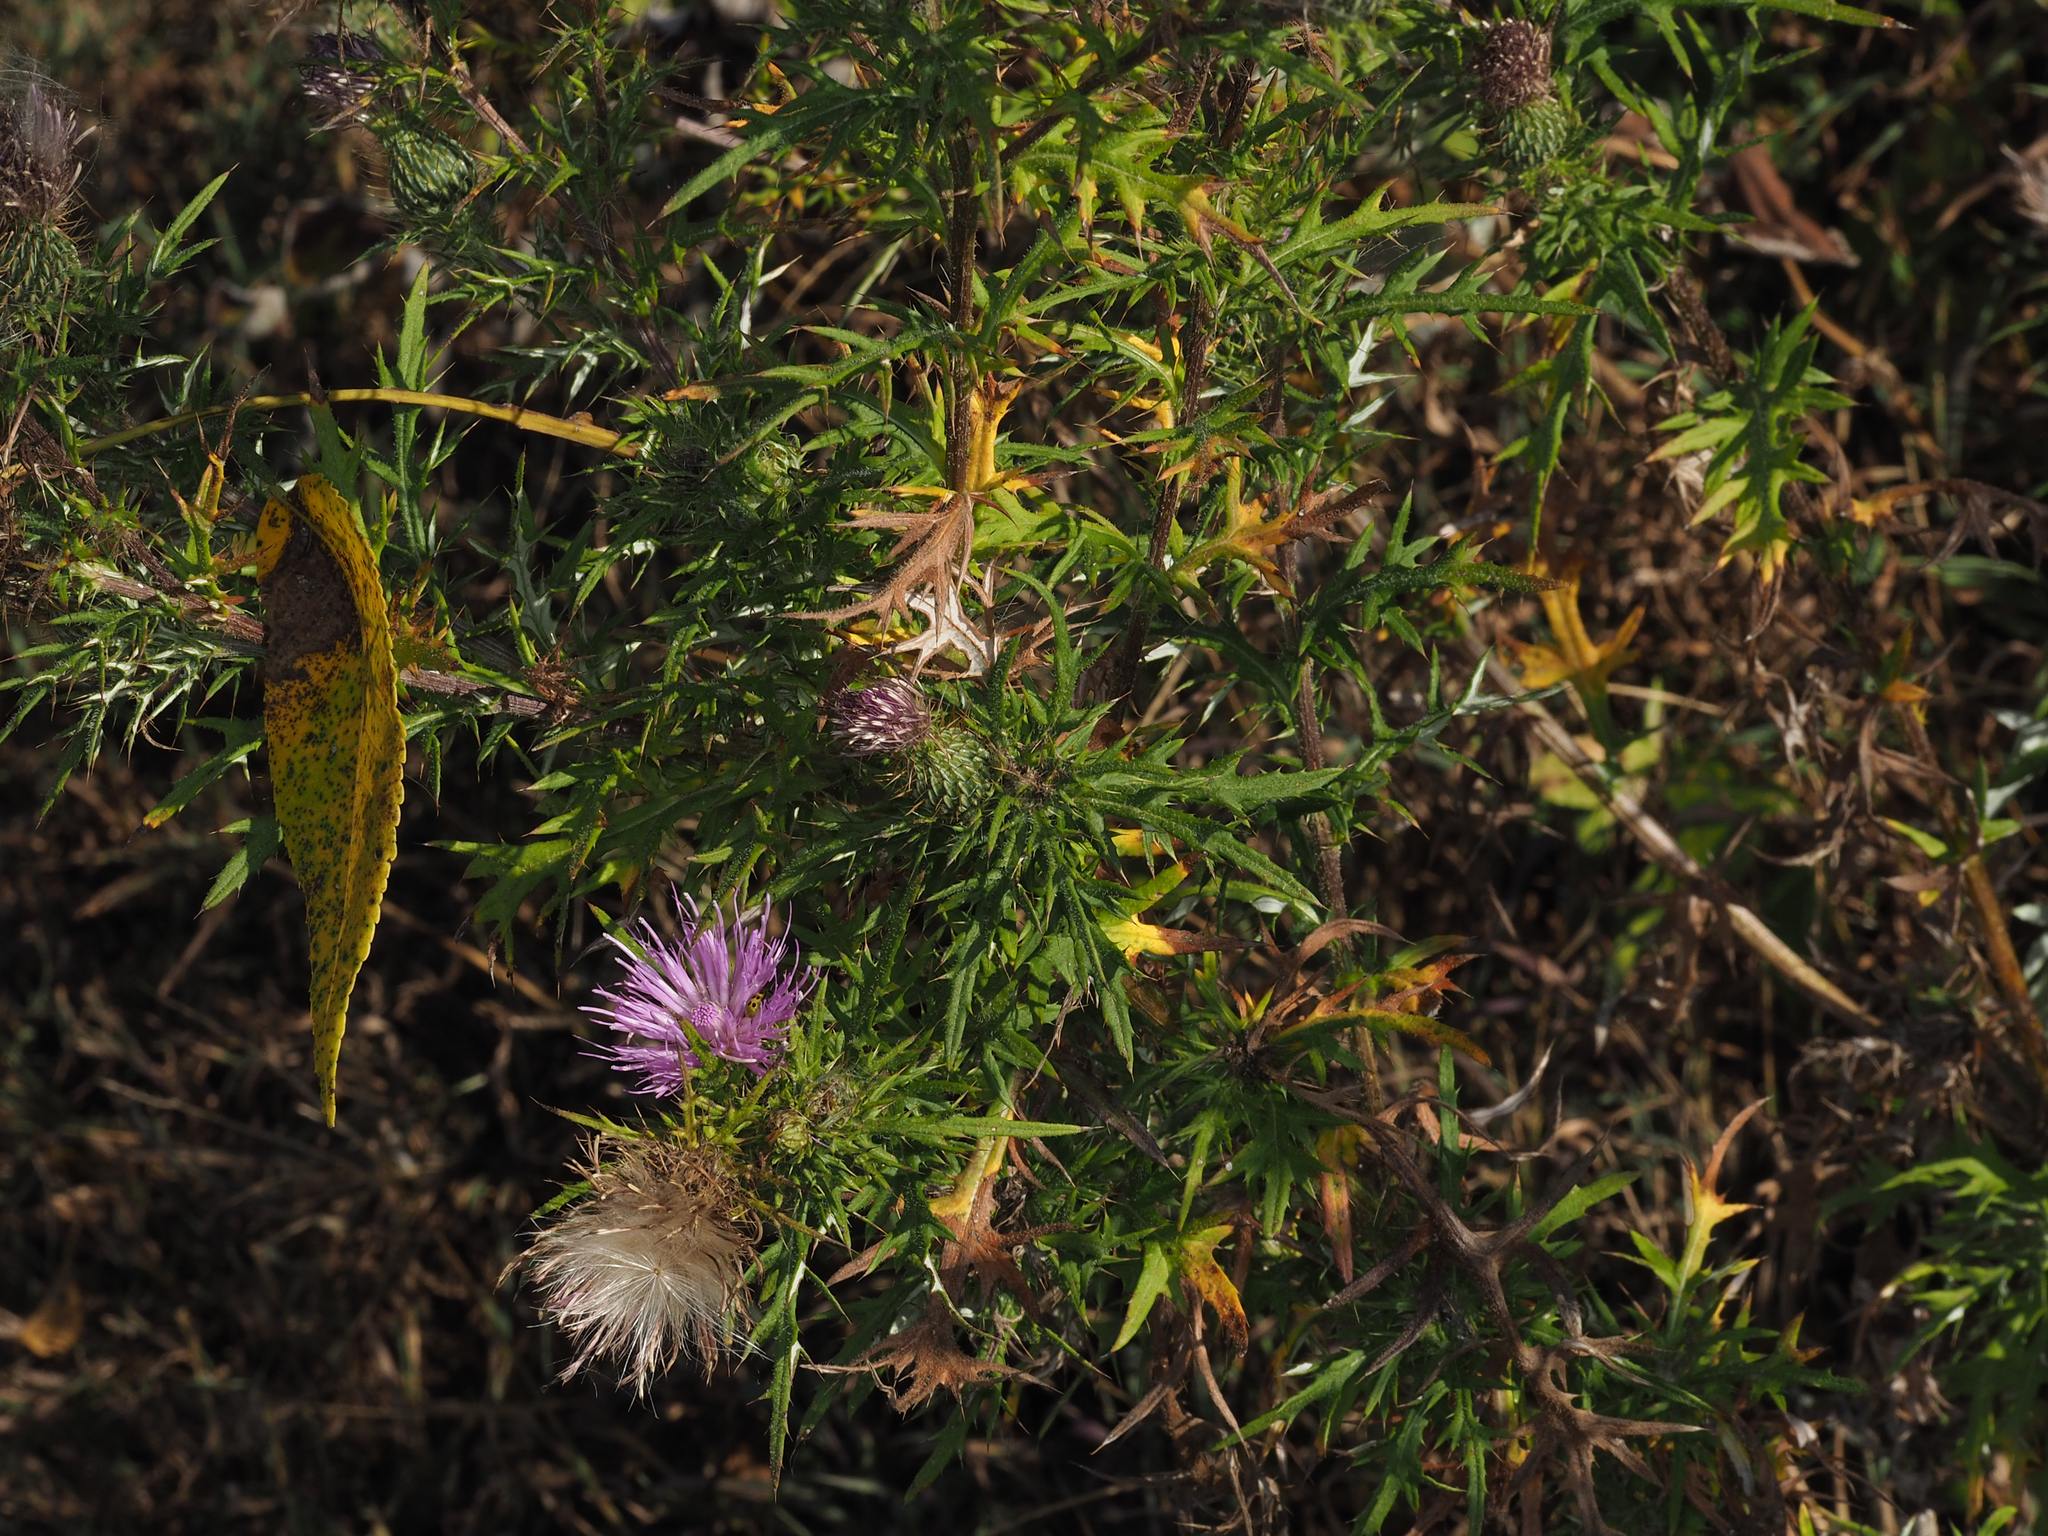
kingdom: Plantae
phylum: Tracheophyta
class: Magnoliopsida
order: Asterales
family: Asteraceae
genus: Cirsium
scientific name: Cirsium discolor
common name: Field thistle
